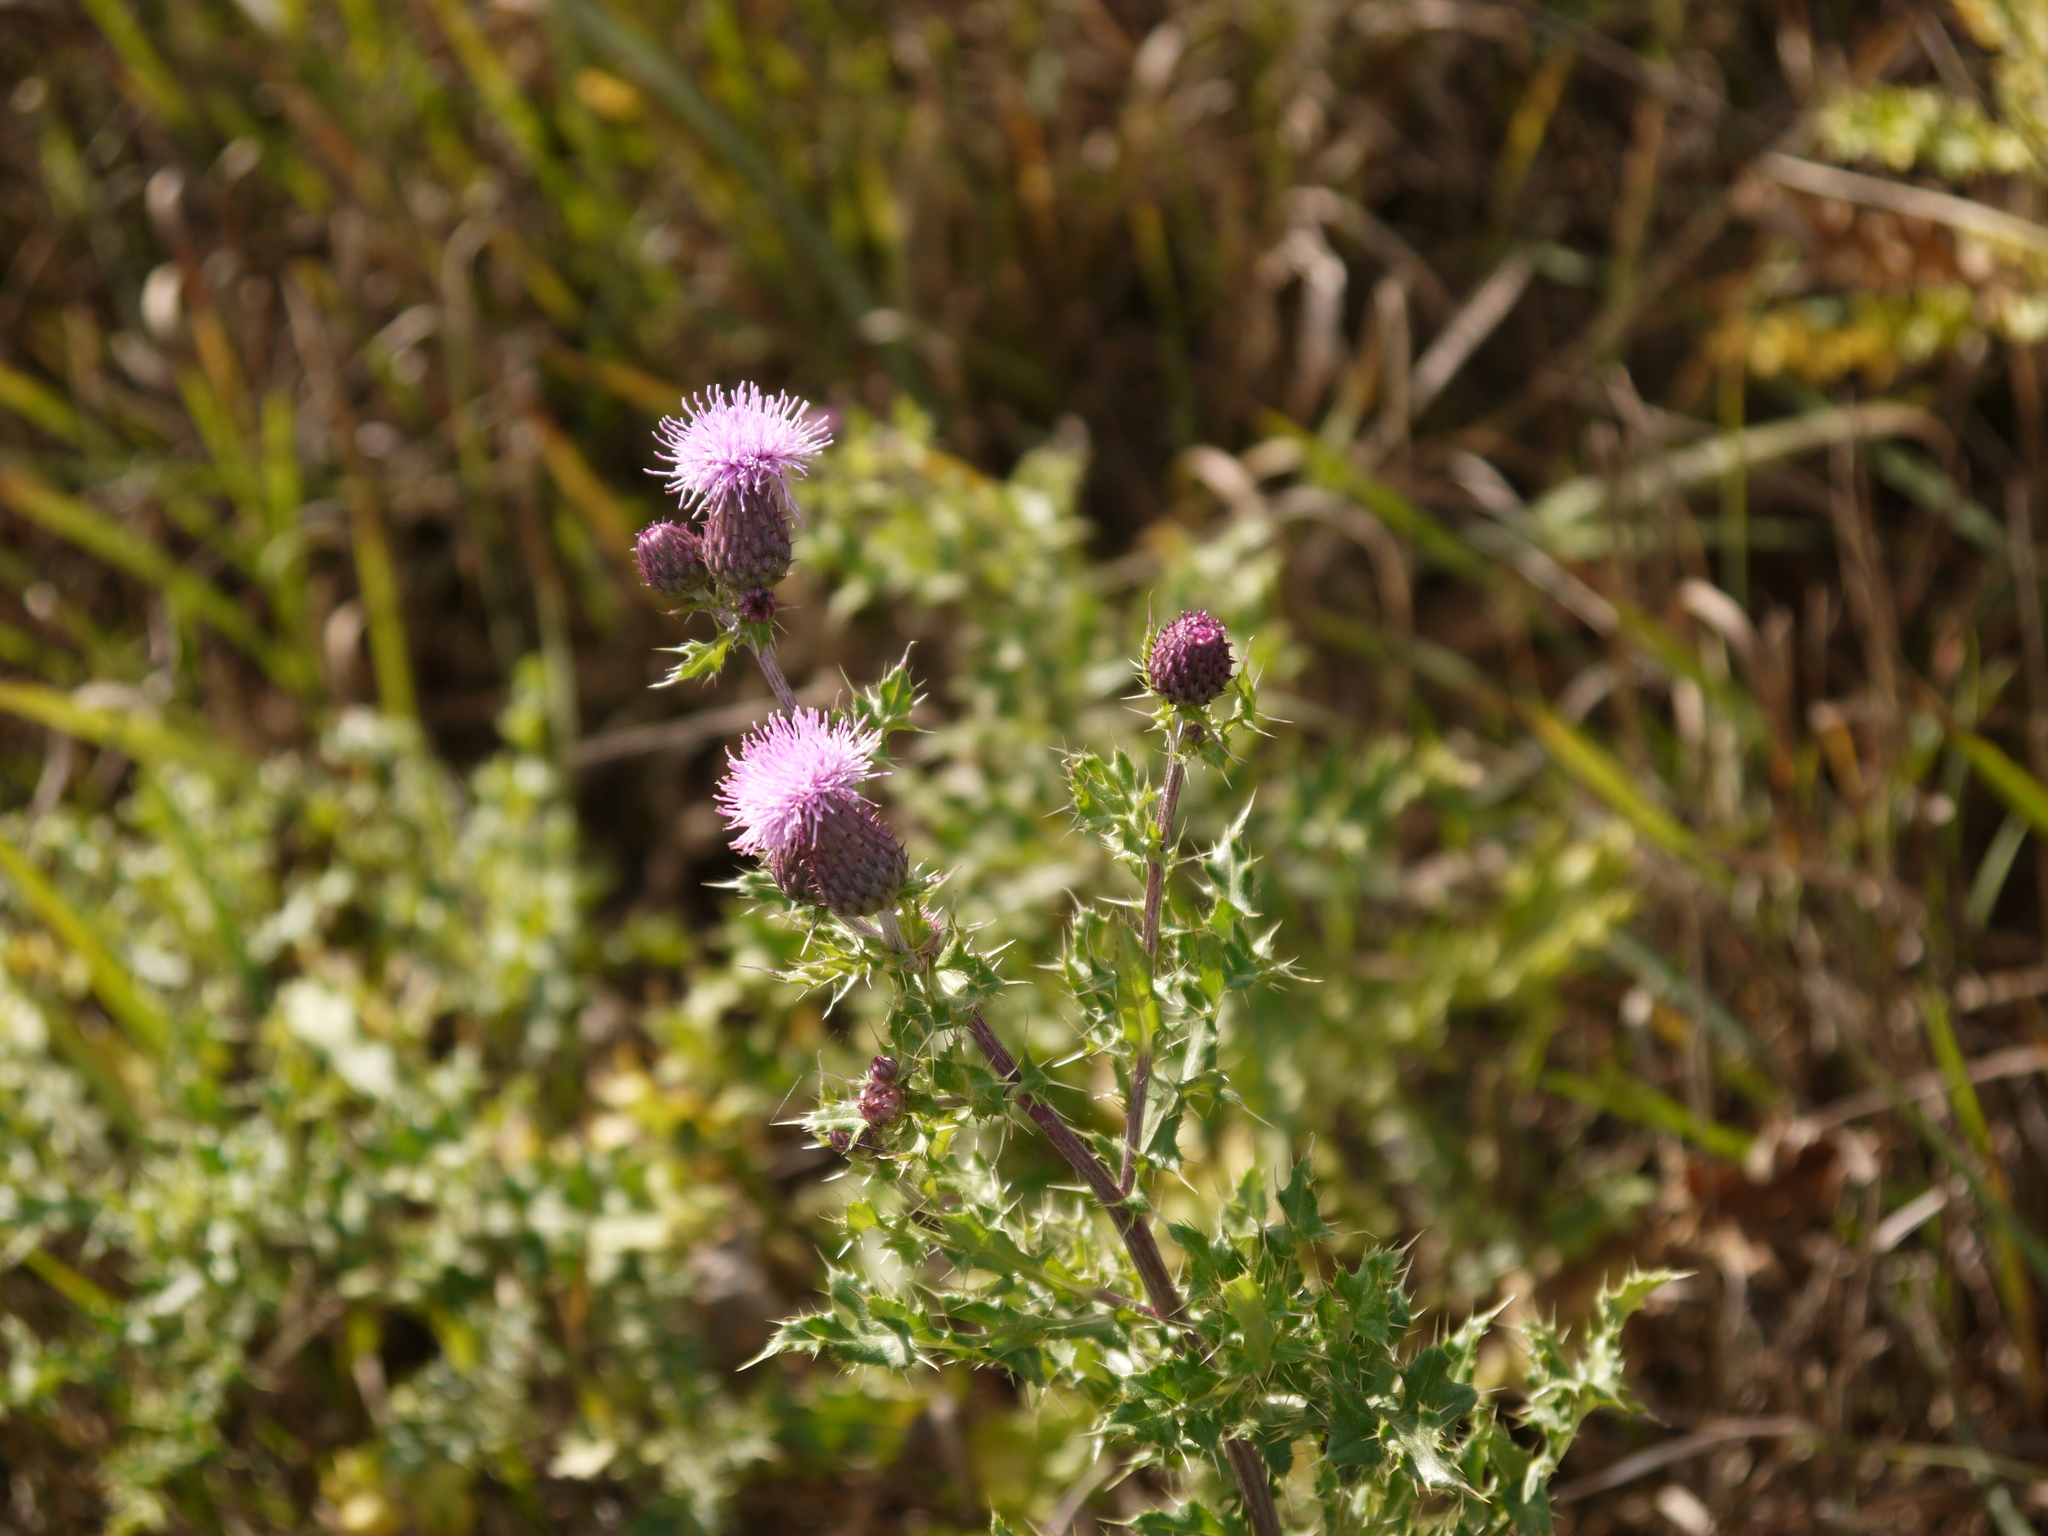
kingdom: Plantae
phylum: Tracheophyta
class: Magnoliopsida
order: Asterales
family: Asteraceae
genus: Cirsium
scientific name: Cirsium arvense
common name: Creeping thistle
